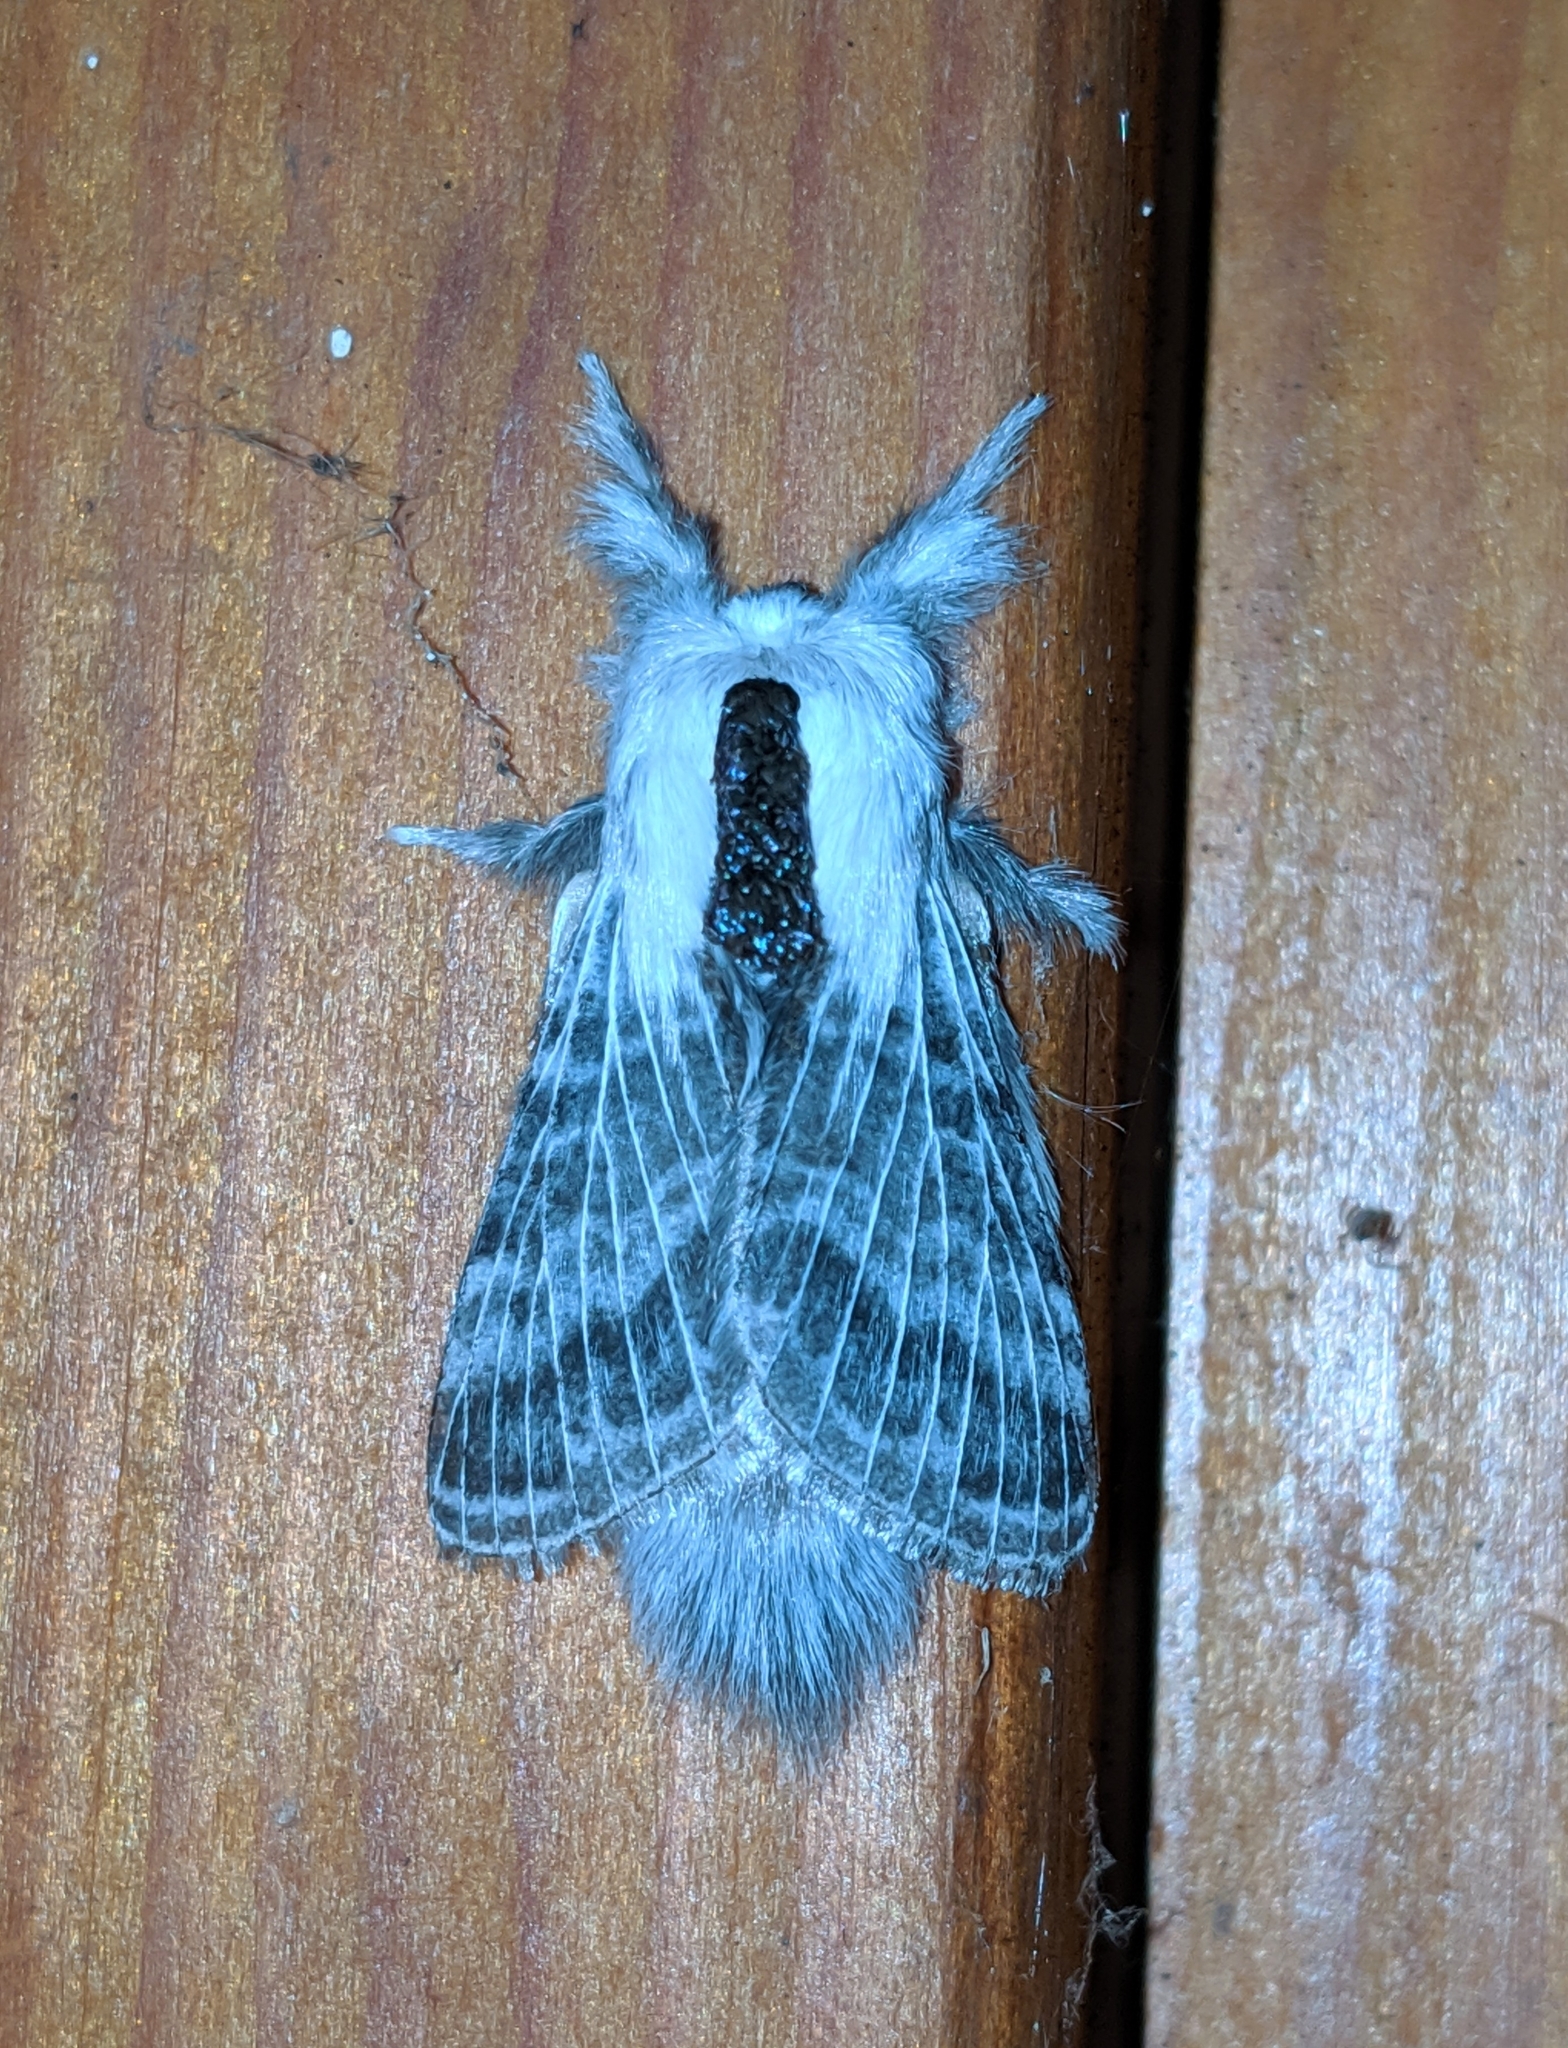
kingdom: Animalia
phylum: Arthropoda
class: Insecta
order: Lepidoptera
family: Lasiocampidae
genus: Tolype
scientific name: Tolype distincta
